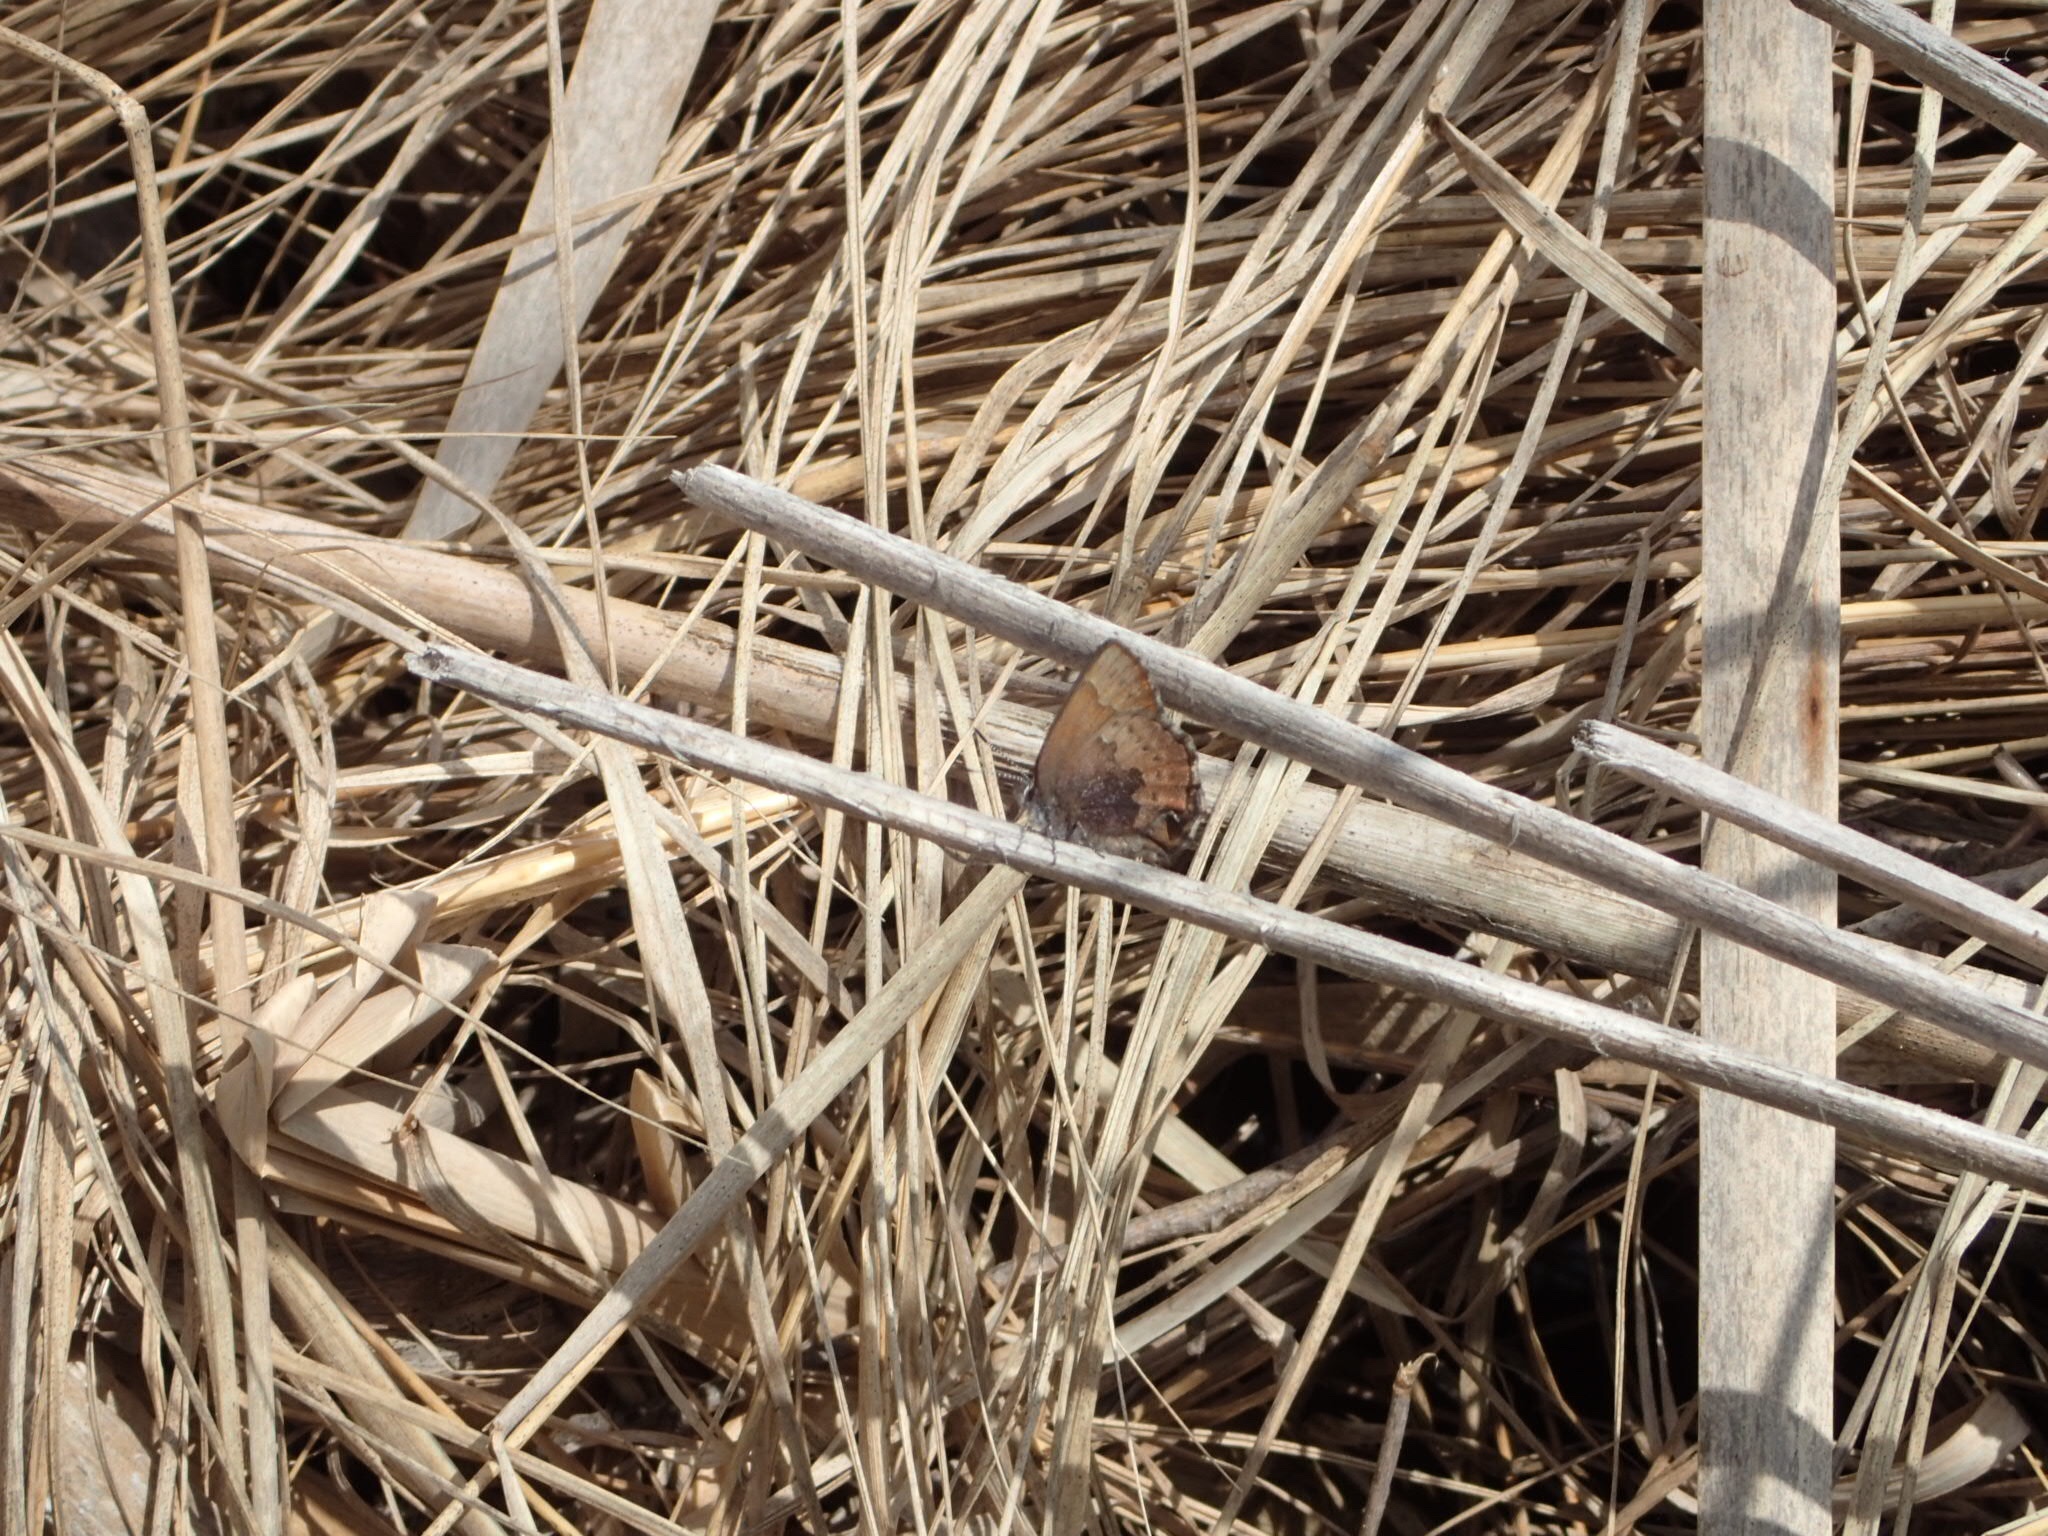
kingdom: Animalia
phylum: Arthropoda
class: Insecta
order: Lepidoptera
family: Lycaenidae
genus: Incisalia
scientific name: Incisalia irioides
